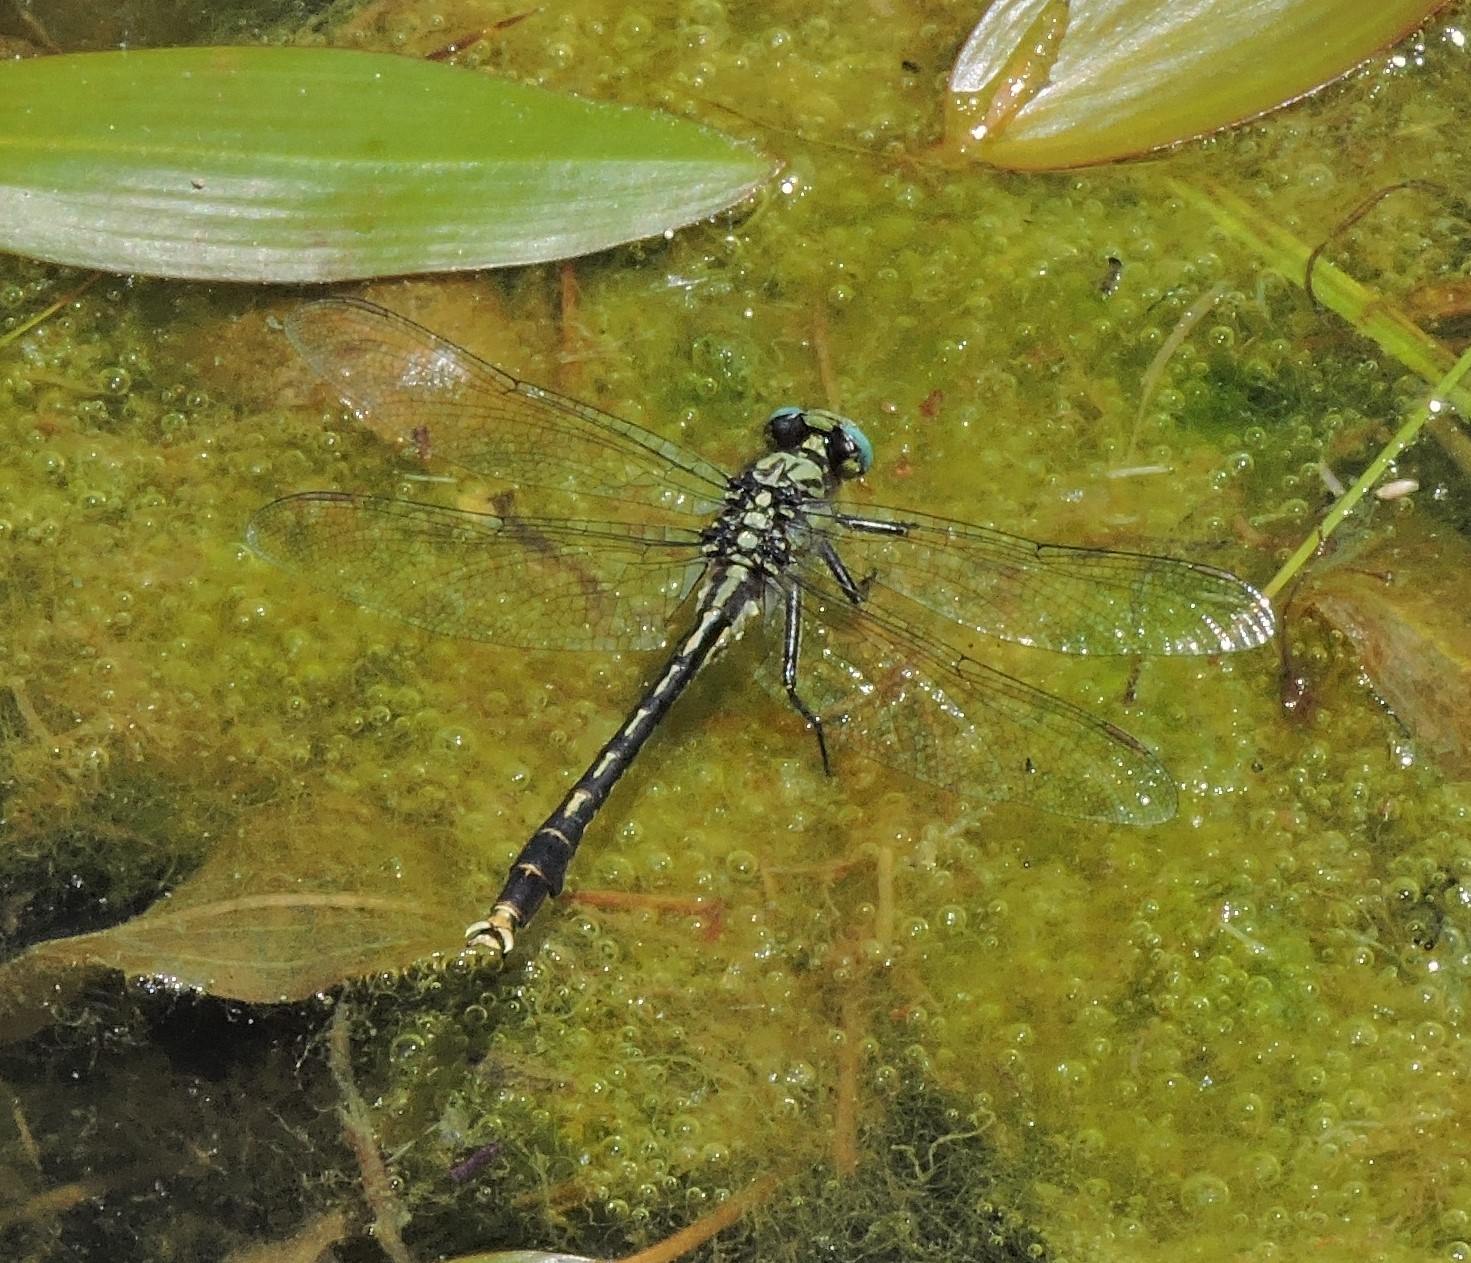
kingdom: Animalia
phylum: Arthropoda
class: Insecta
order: Odonata
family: Gomphidae
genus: Arigomphus
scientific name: Arigomphus villosipes
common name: Unicorn clubtail
